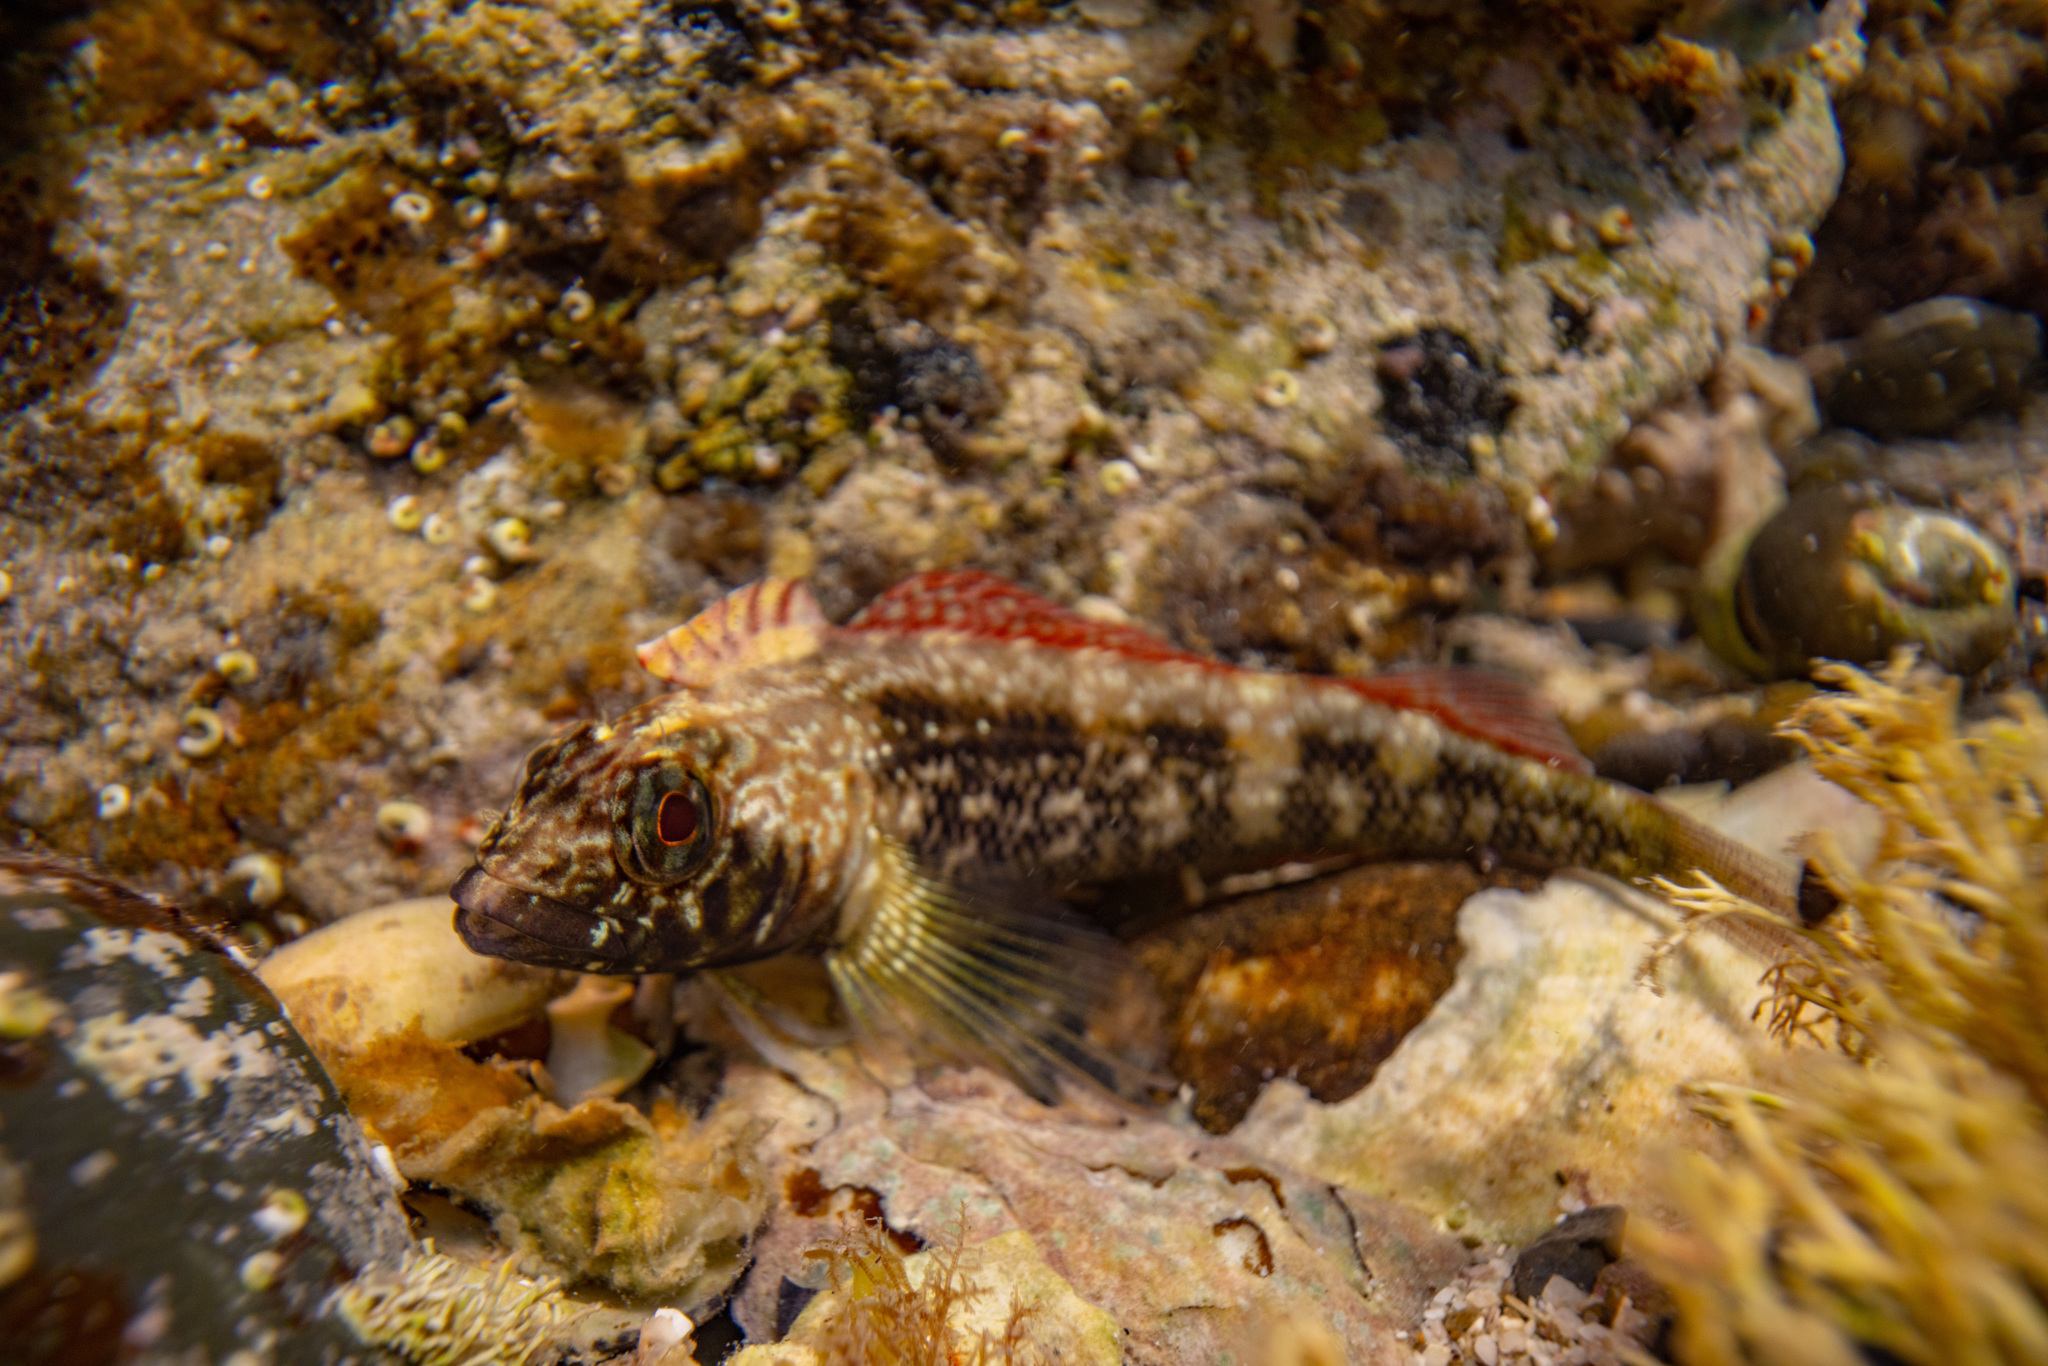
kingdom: Animalia
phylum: Chordata
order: Perciformes
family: Tripterygiidae
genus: Forsterygion
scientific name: Forsterygion lapillum
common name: Common triplefin
